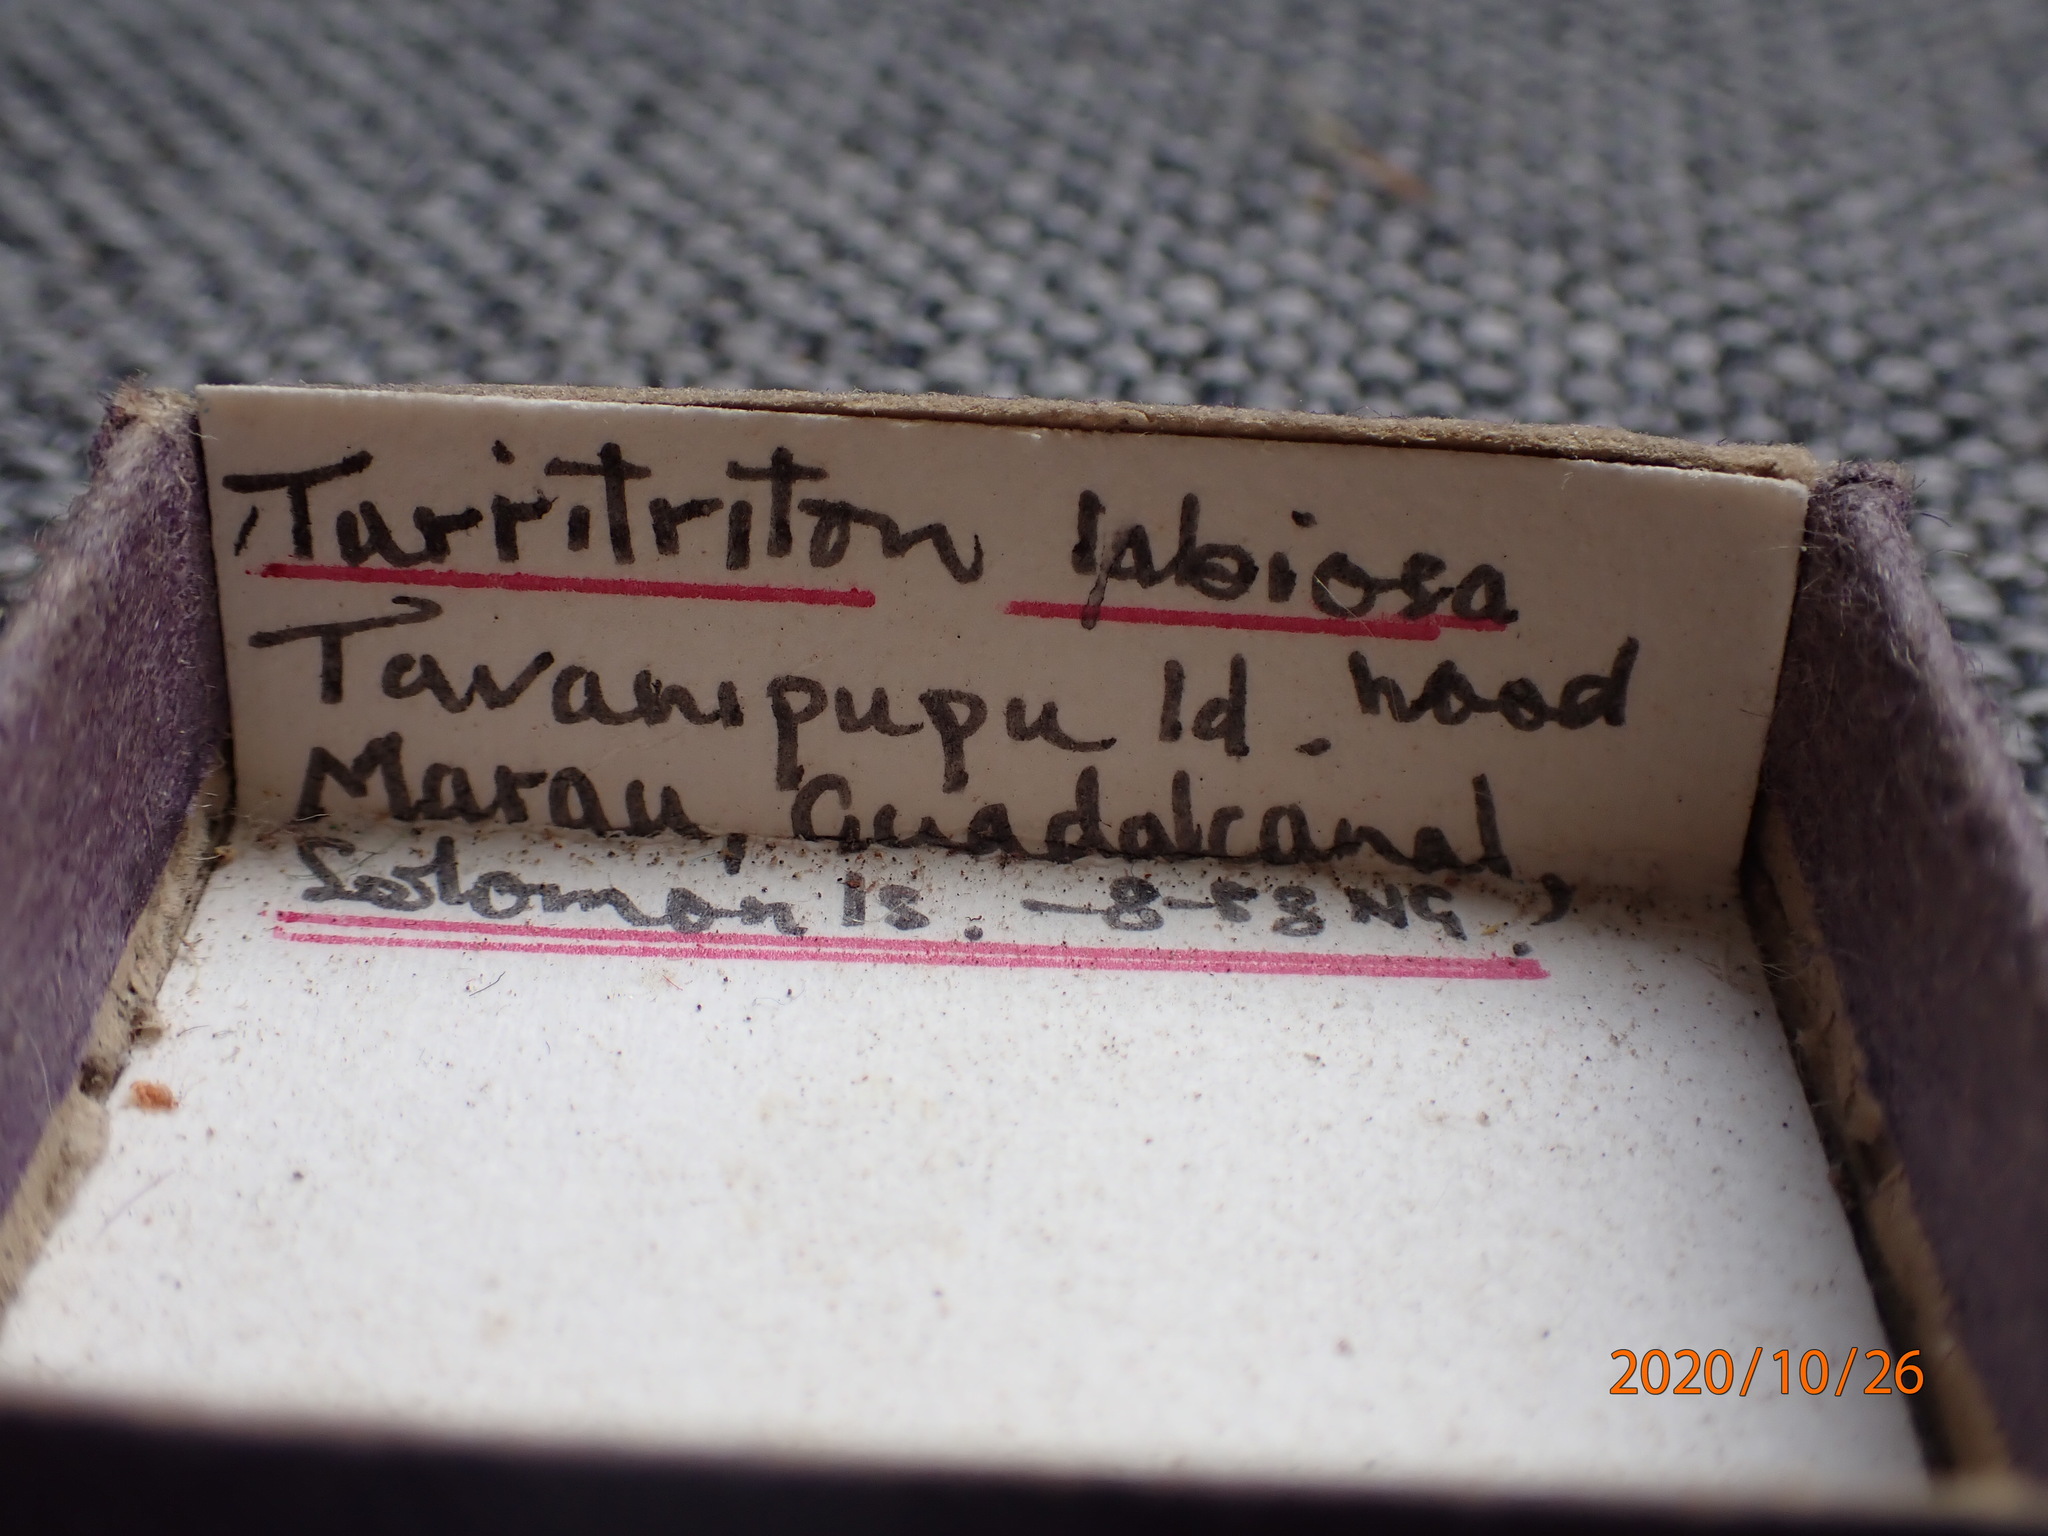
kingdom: Animalia
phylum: Mollusca
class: Gastropoda
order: Littorinimorpha
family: Cymatiidae
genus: Turritriton
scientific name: Turritriton labiosus
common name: Lip triton
